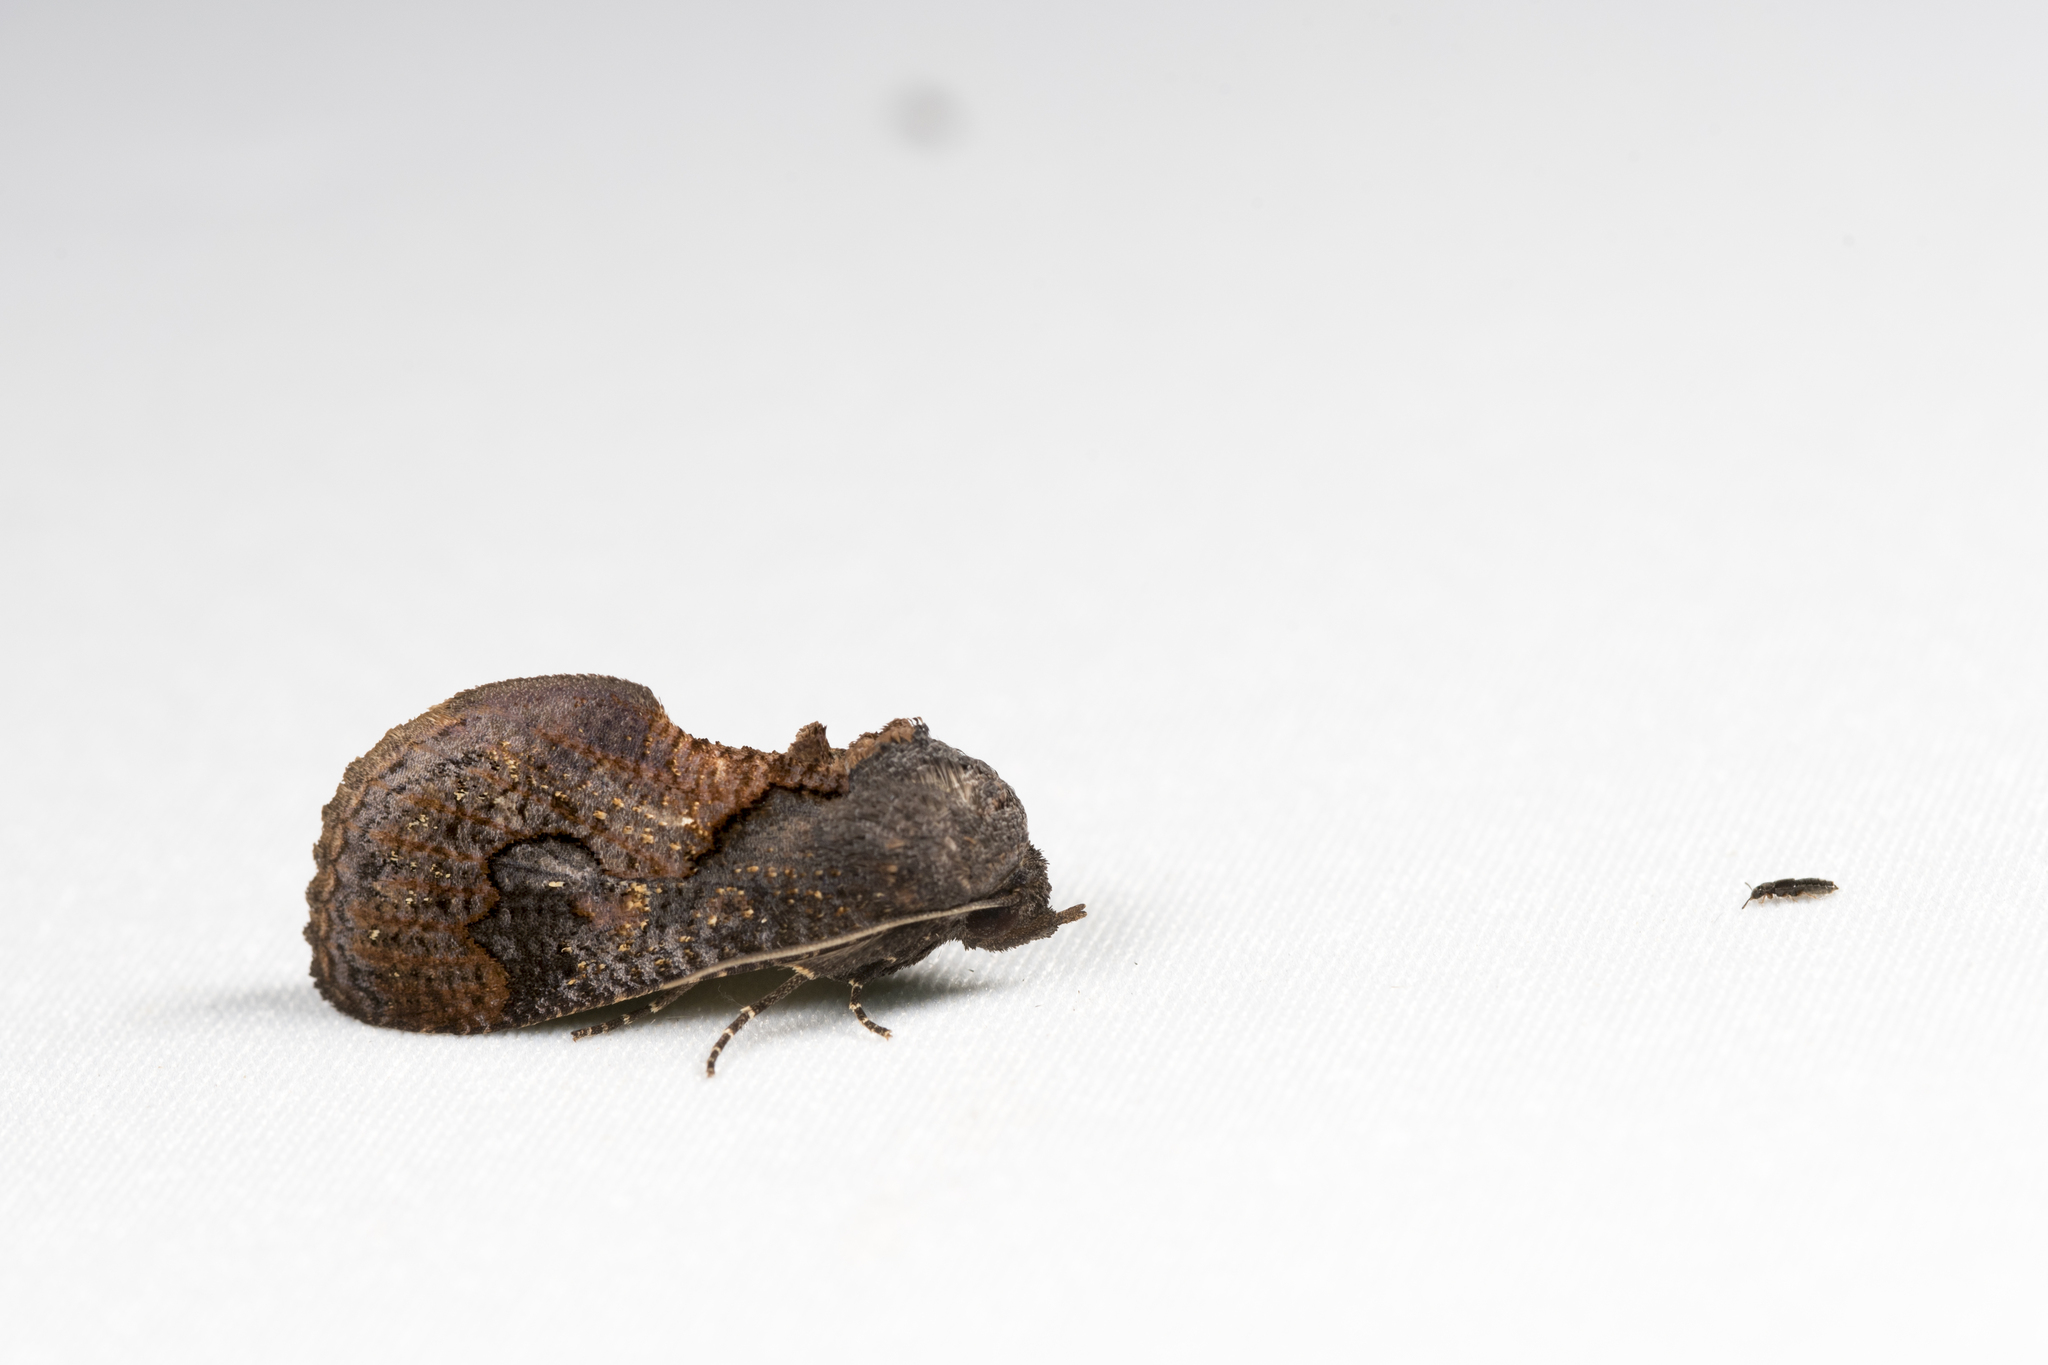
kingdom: Animalia
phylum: Arthropoda
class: Insecta
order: Lepidoptera
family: Erebidae
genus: Batracharta
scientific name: Batracharta divisa
